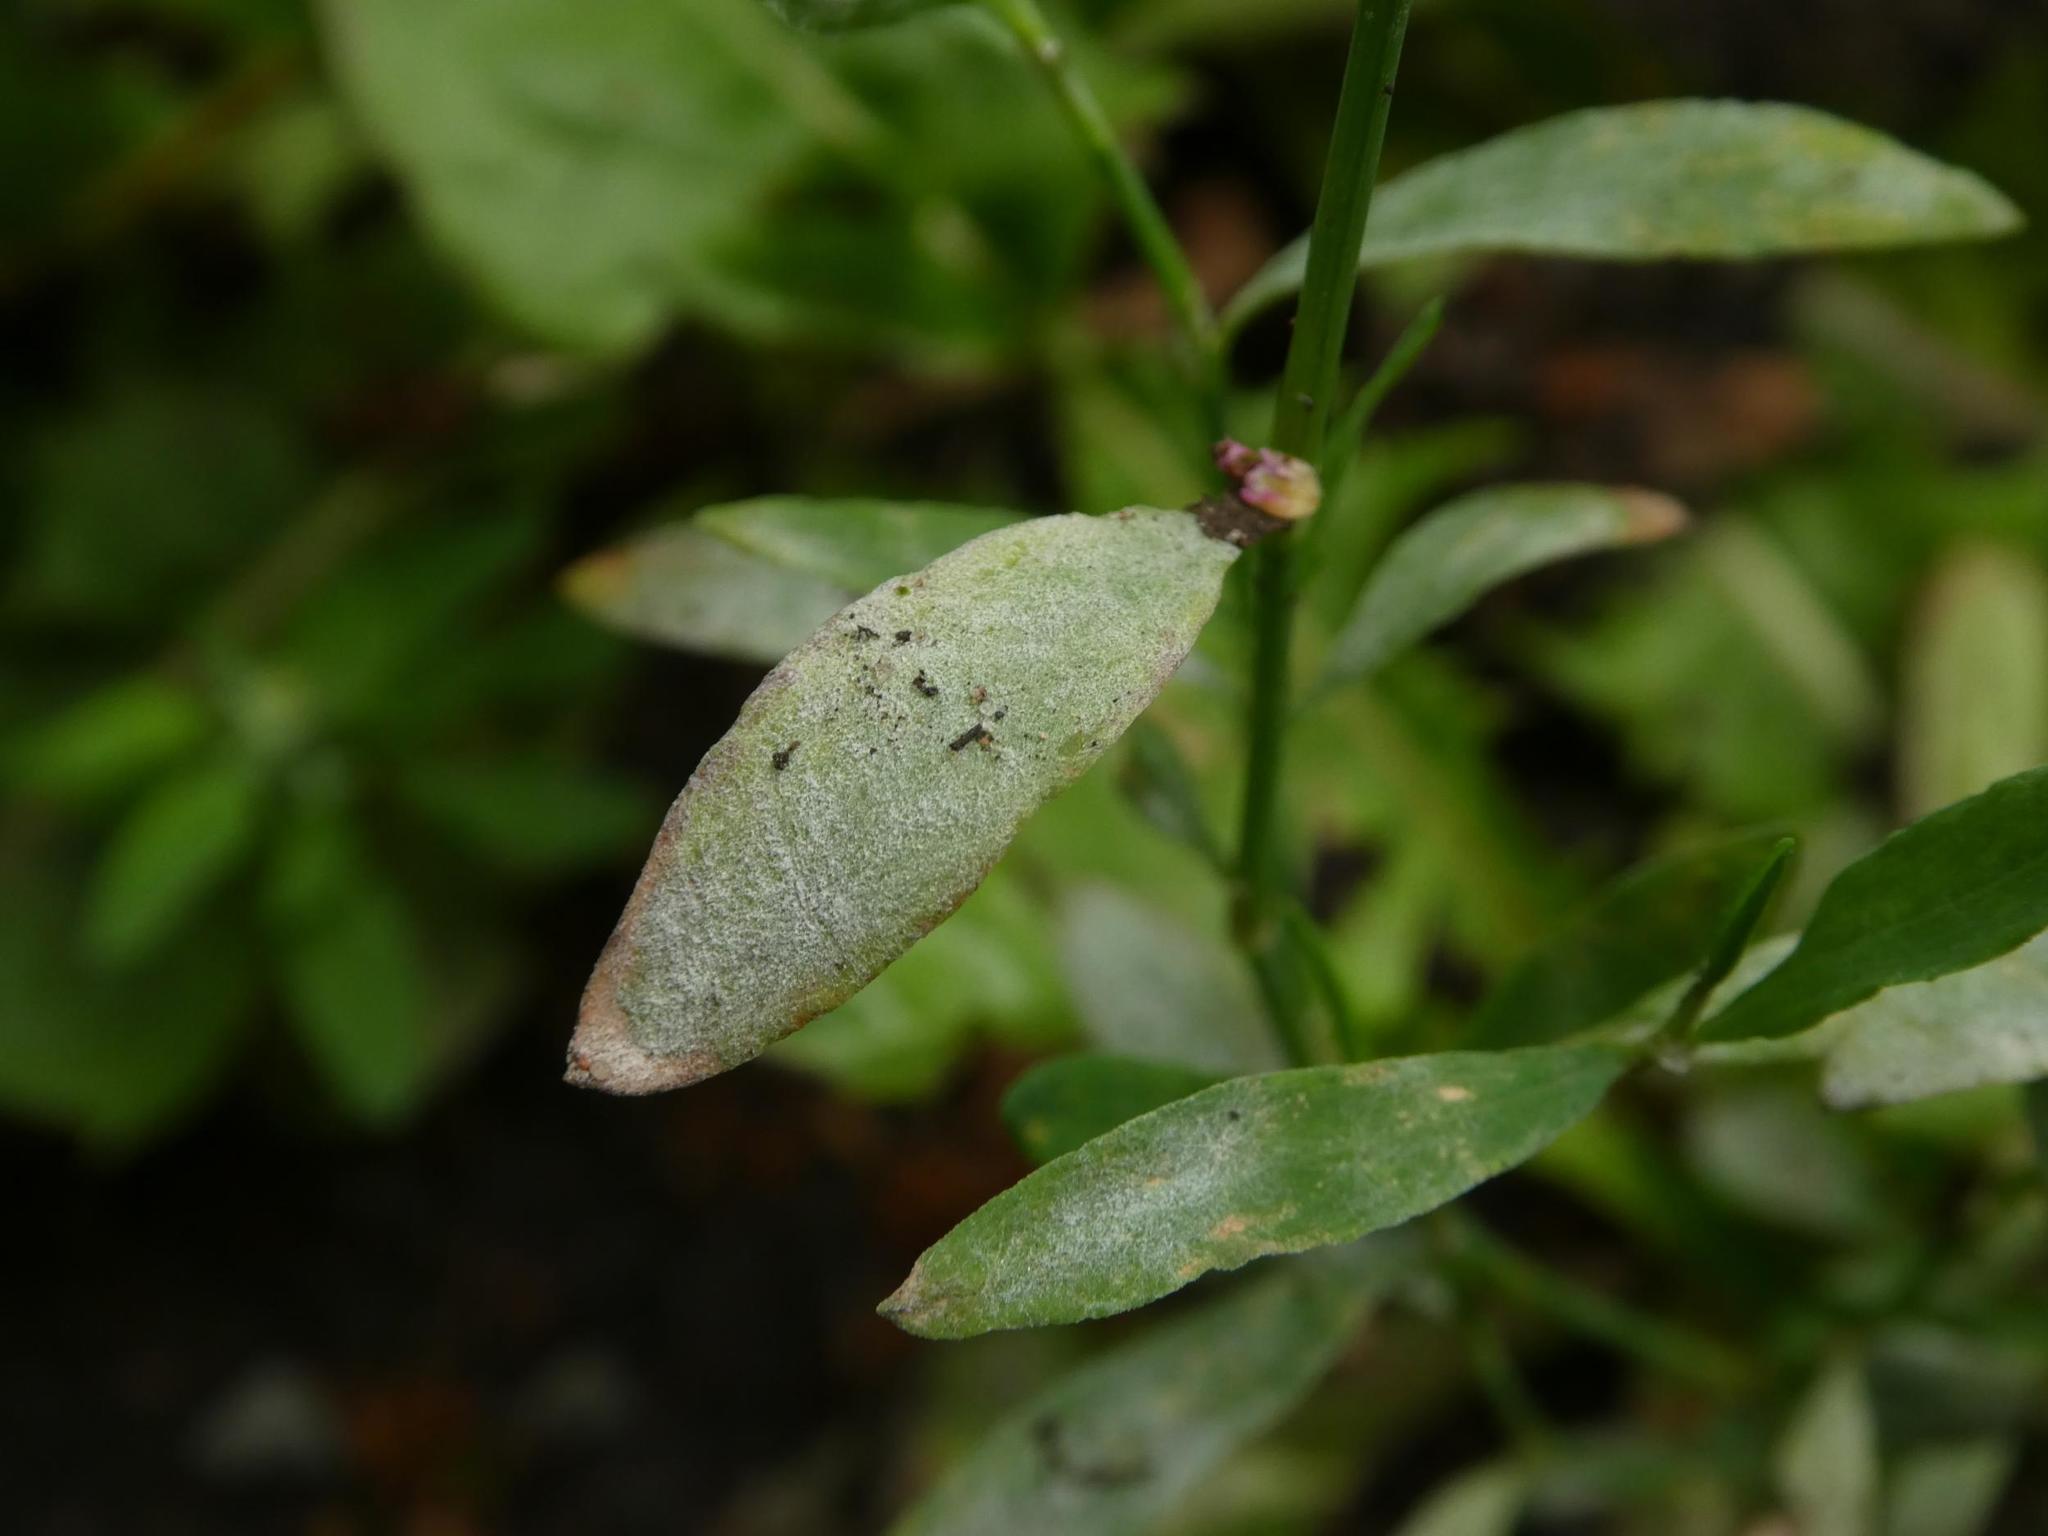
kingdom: Fungi
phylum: Ascomycota
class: Leotiomycetes
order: Helotiales
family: Erysiphaceae
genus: Erysiphe
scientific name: Erysiphe polygoni
